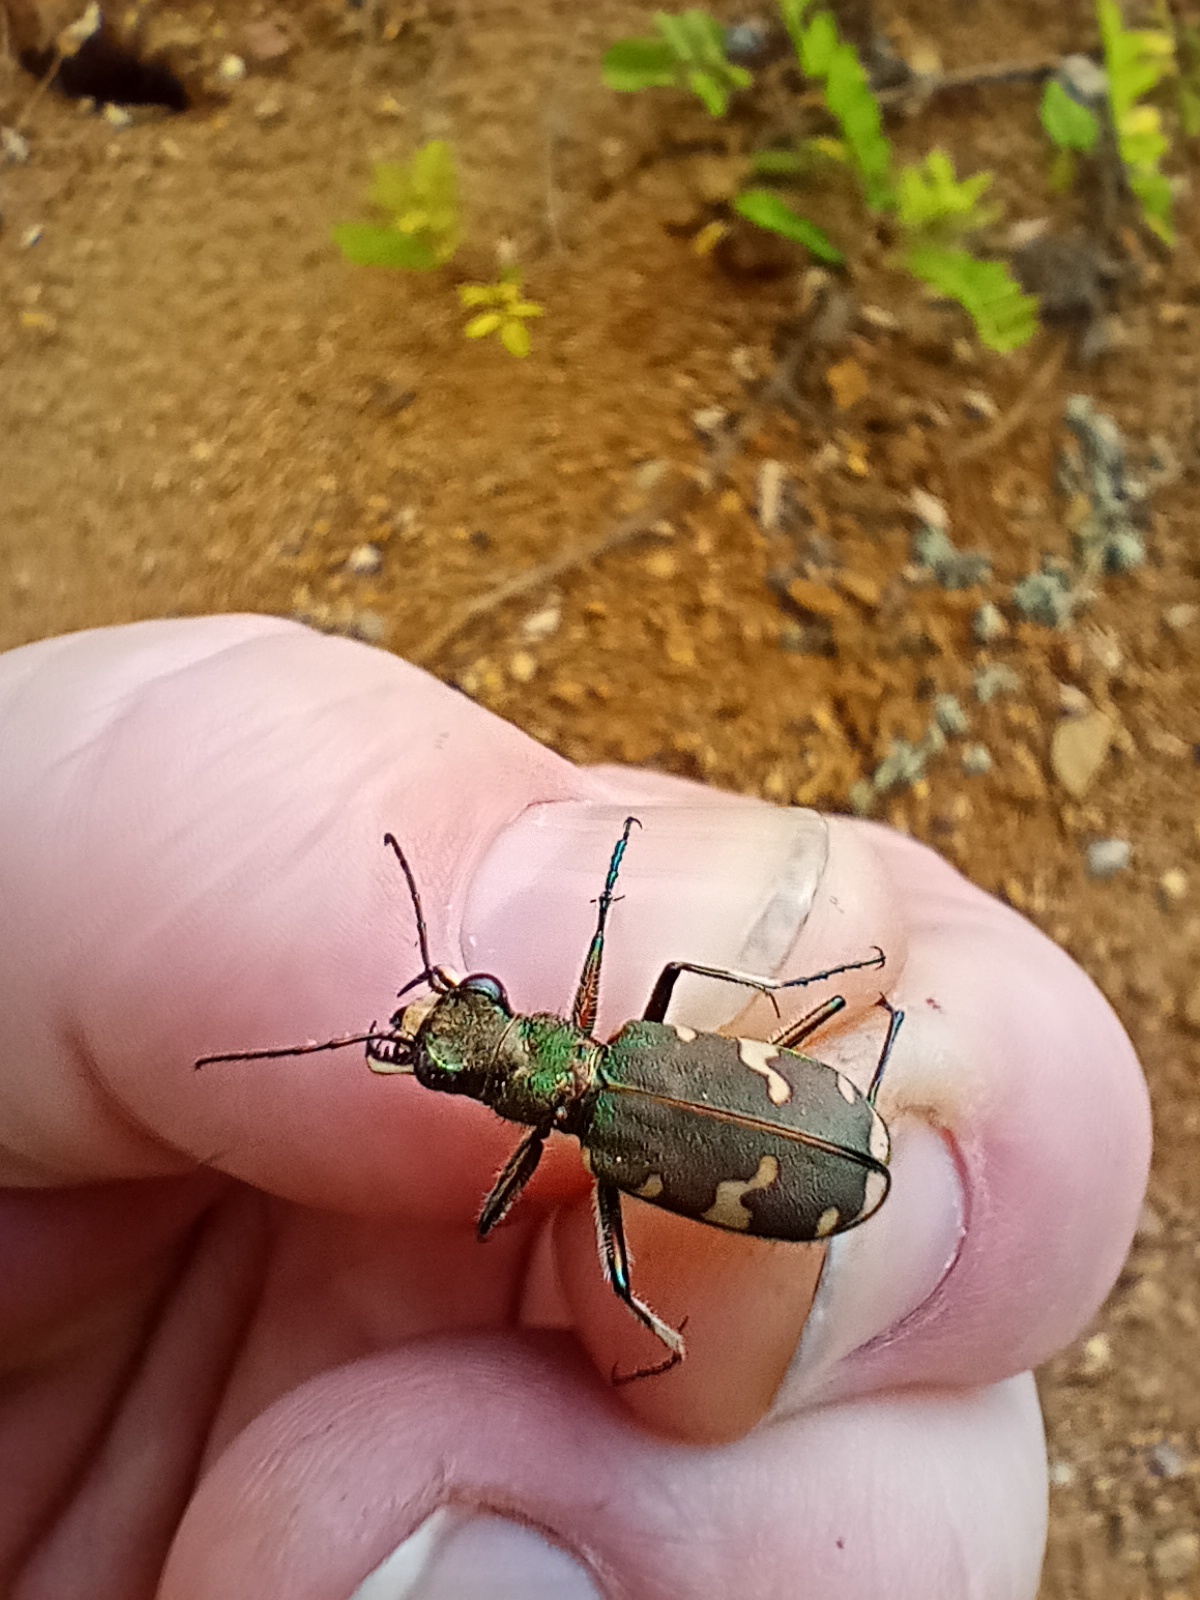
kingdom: Animalia
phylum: Arthropoda
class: Insecta
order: Coleoptera
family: Carabidae
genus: Cicindela
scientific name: Cicindela sylvicola
